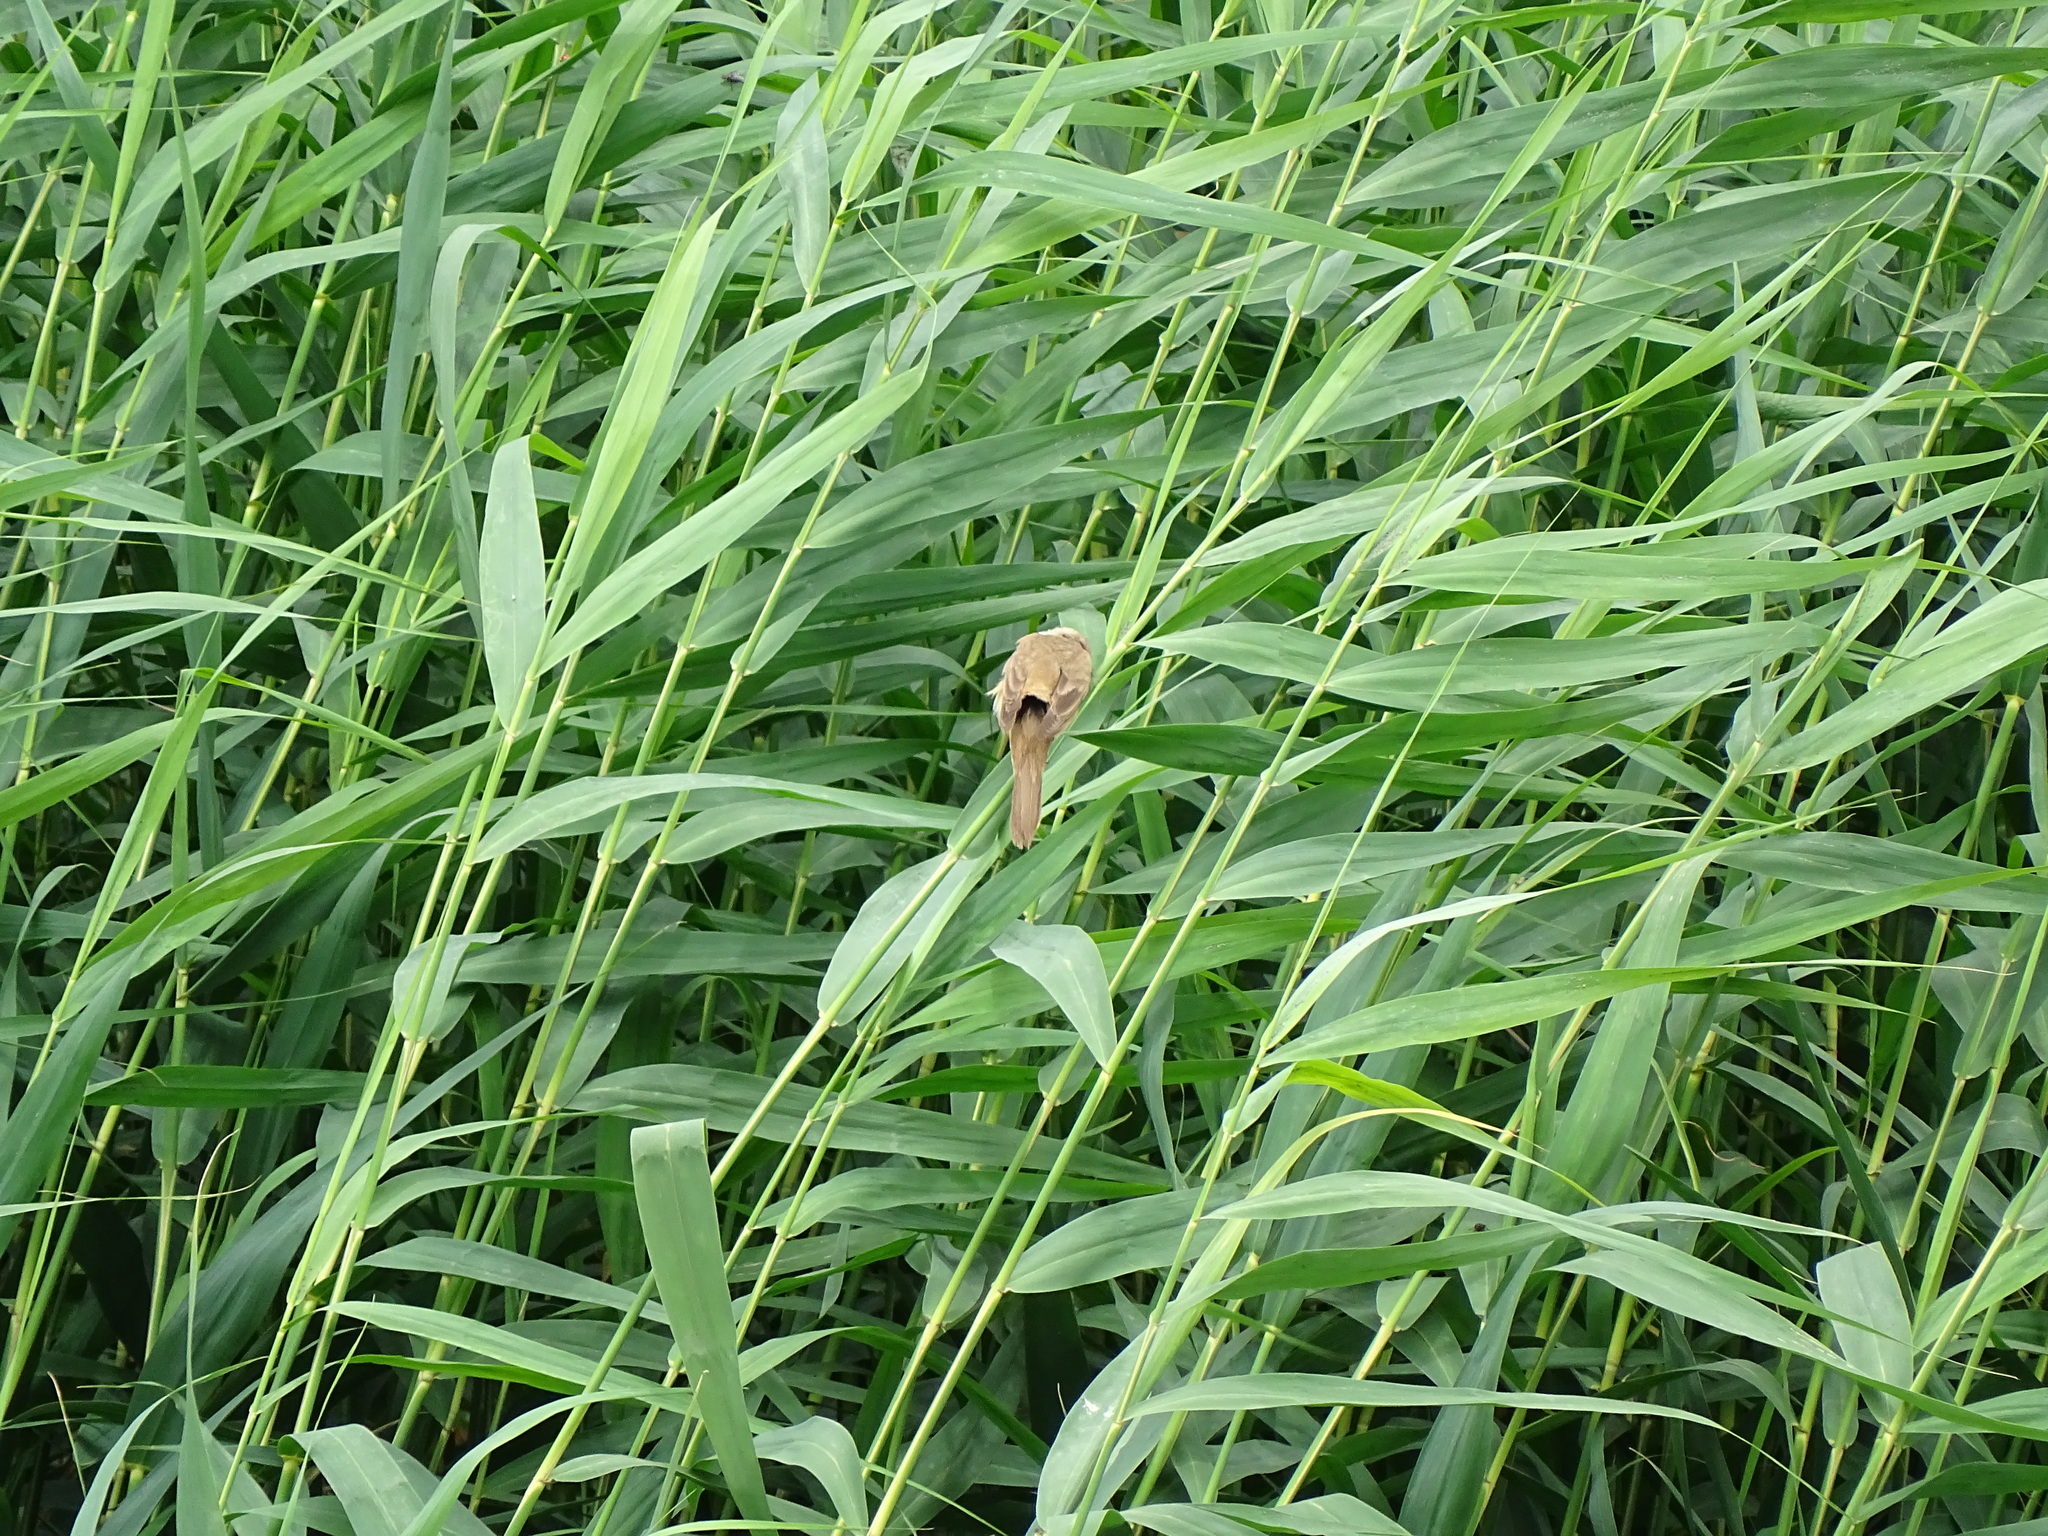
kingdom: Animalia
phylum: Chordata
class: Aves
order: Passeriformes
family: Acrocephalidae
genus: Acrocephalus
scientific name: Acrocephalus arundinaceus
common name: Great reed warbler
